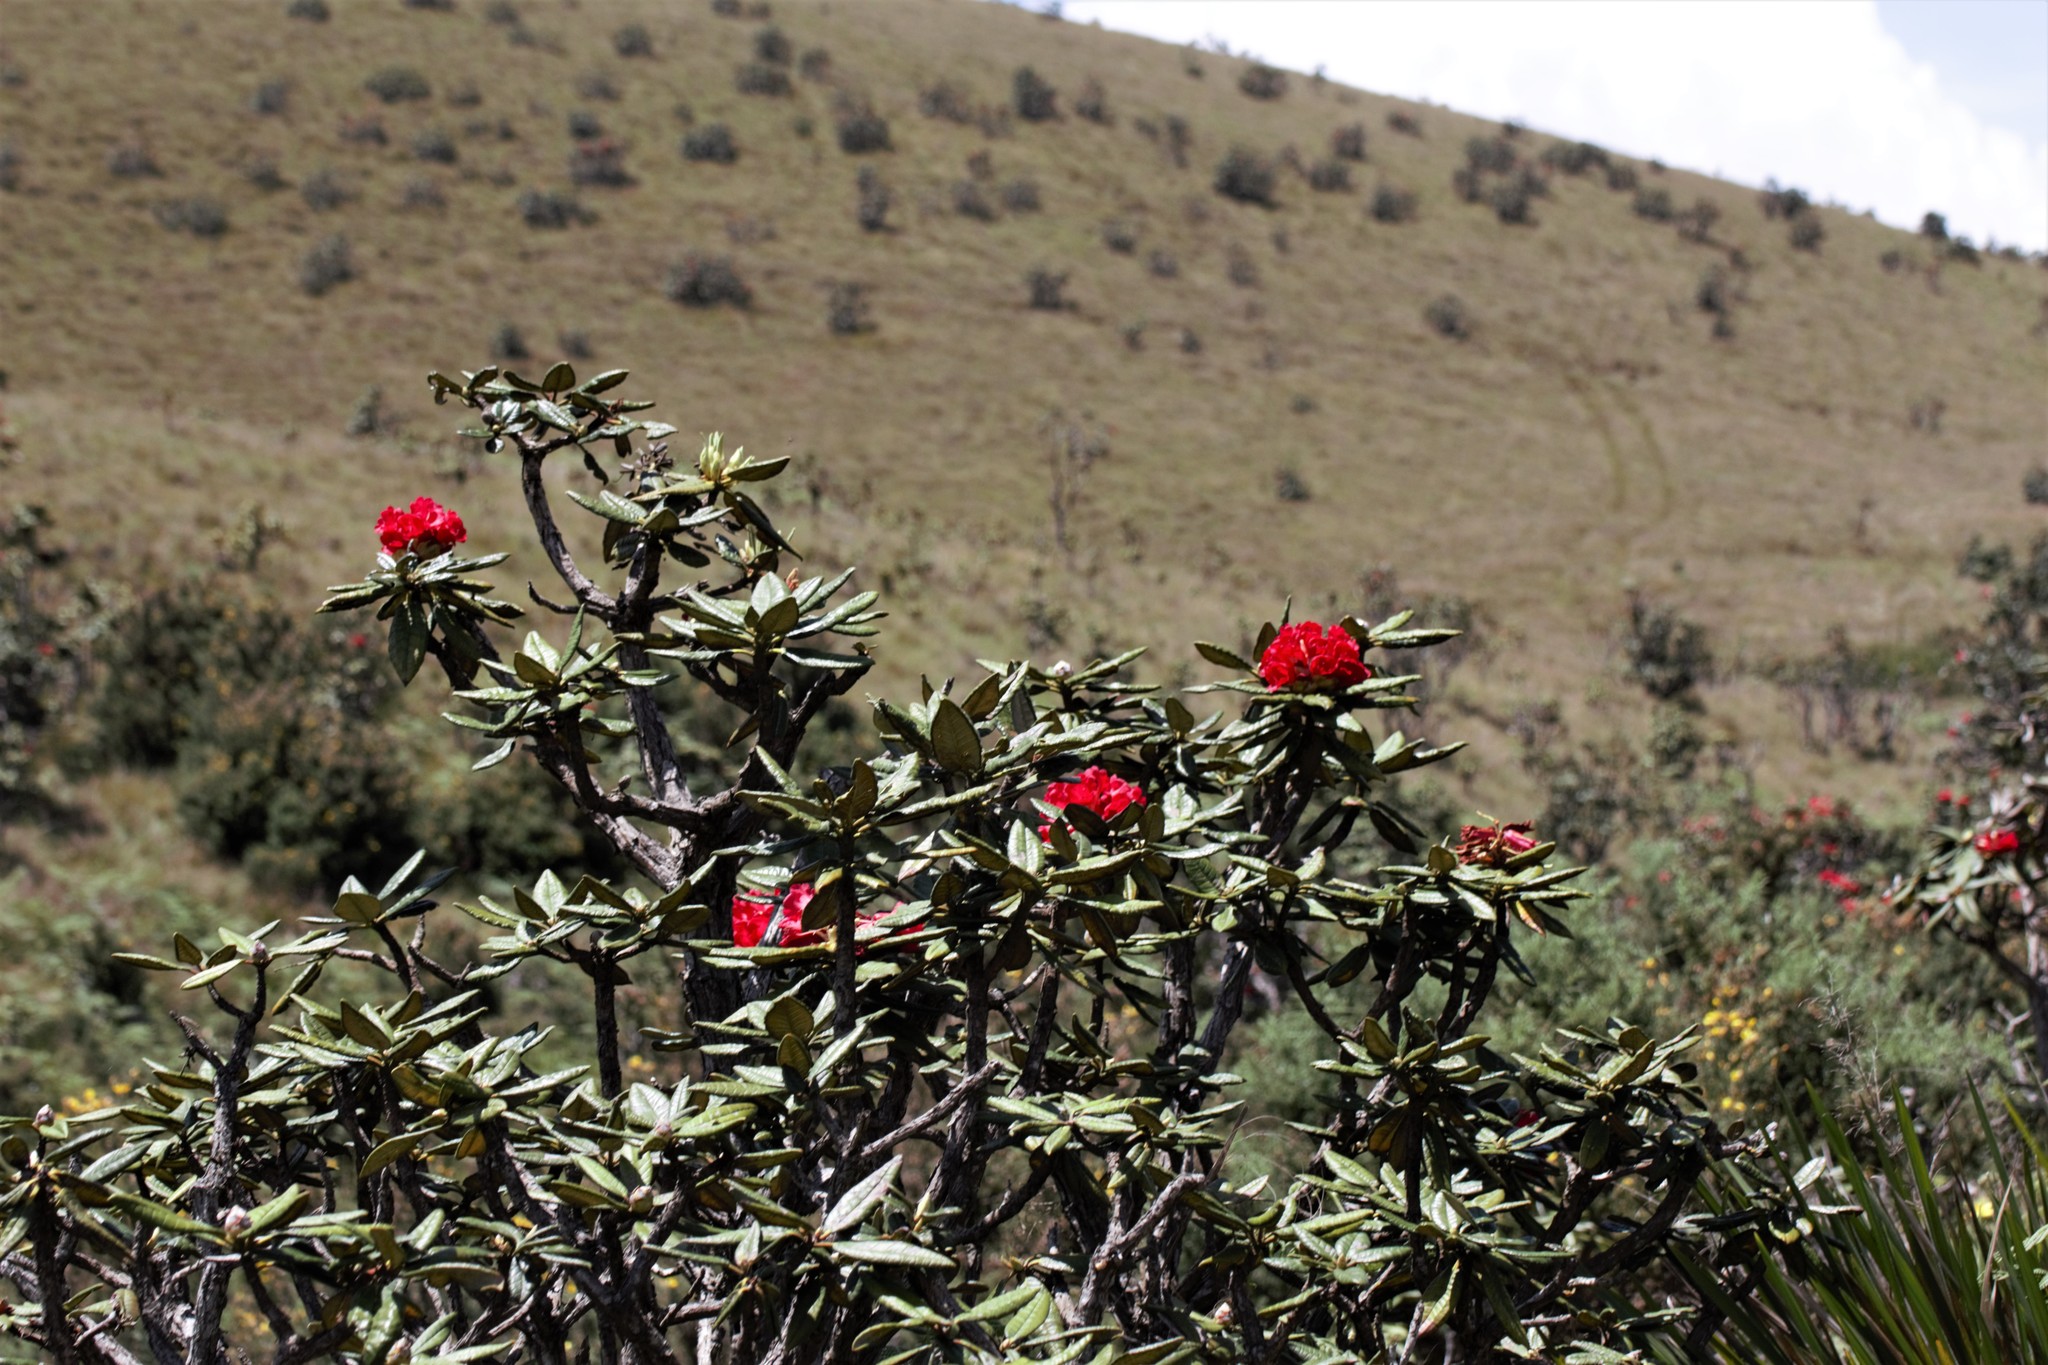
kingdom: Plantae
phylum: Tracheophyta
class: Magnoliopsida
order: Ericales
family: Ericaceae
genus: Rhododendron
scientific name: Rhododendron arboreum
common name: Tree rhododendron
